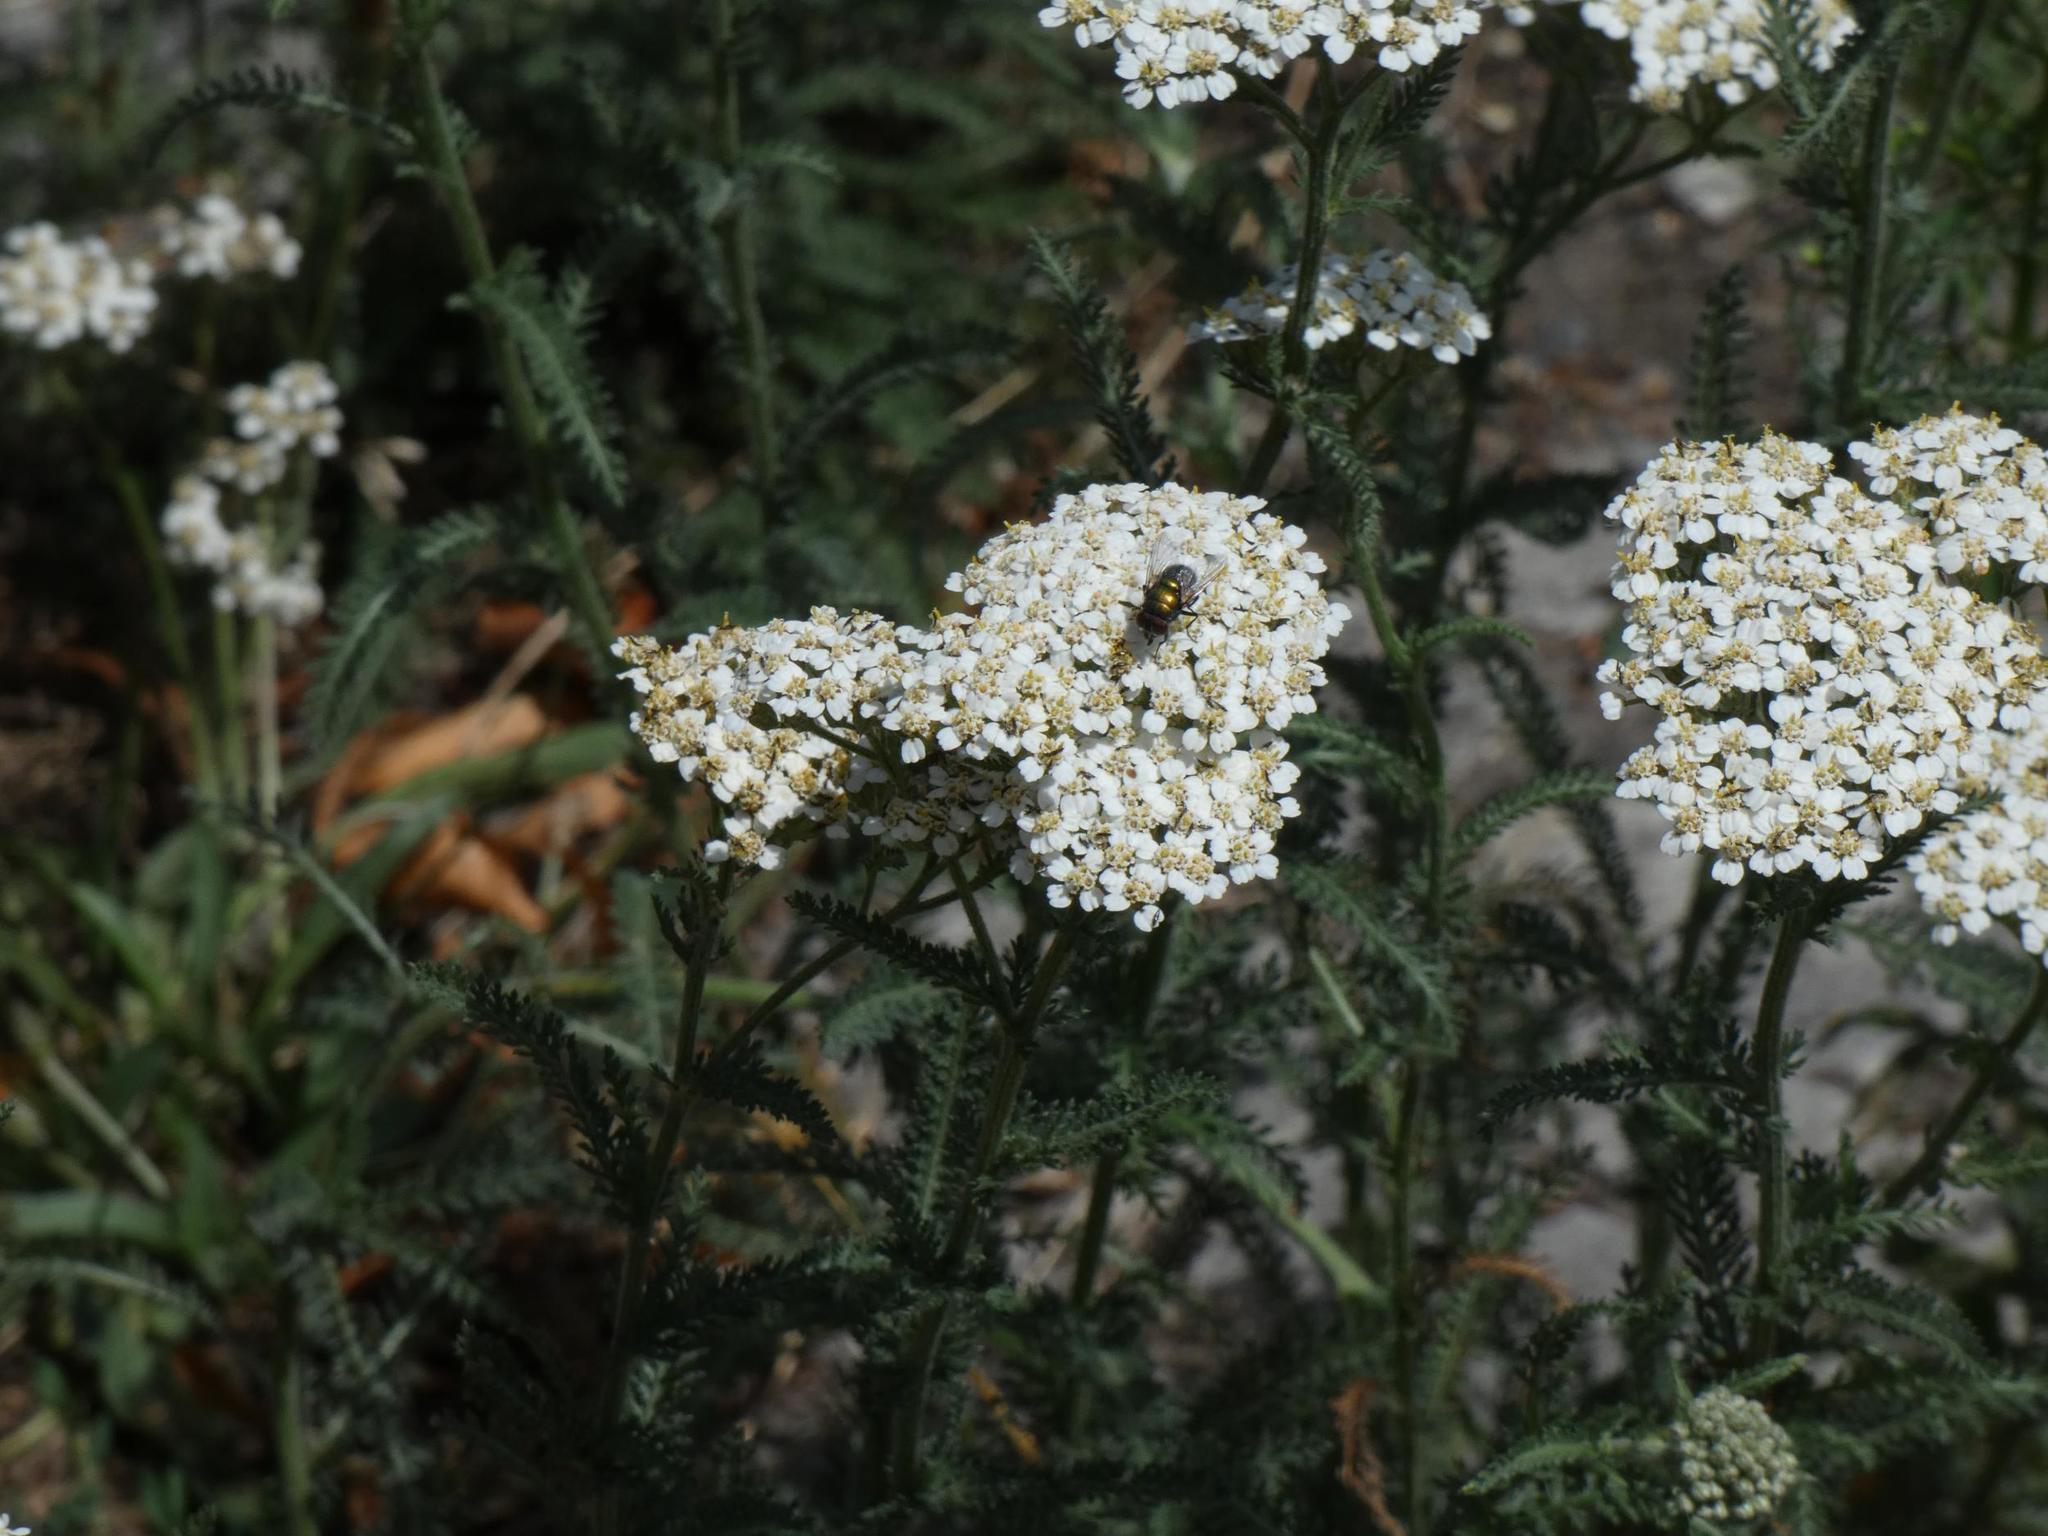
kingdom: Plantae
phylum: Tracheophyta
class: Magnoliopsida
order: Asterales
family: Asteraceae
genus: Achillea
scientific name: Achillea millefolium
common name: Yarrow
